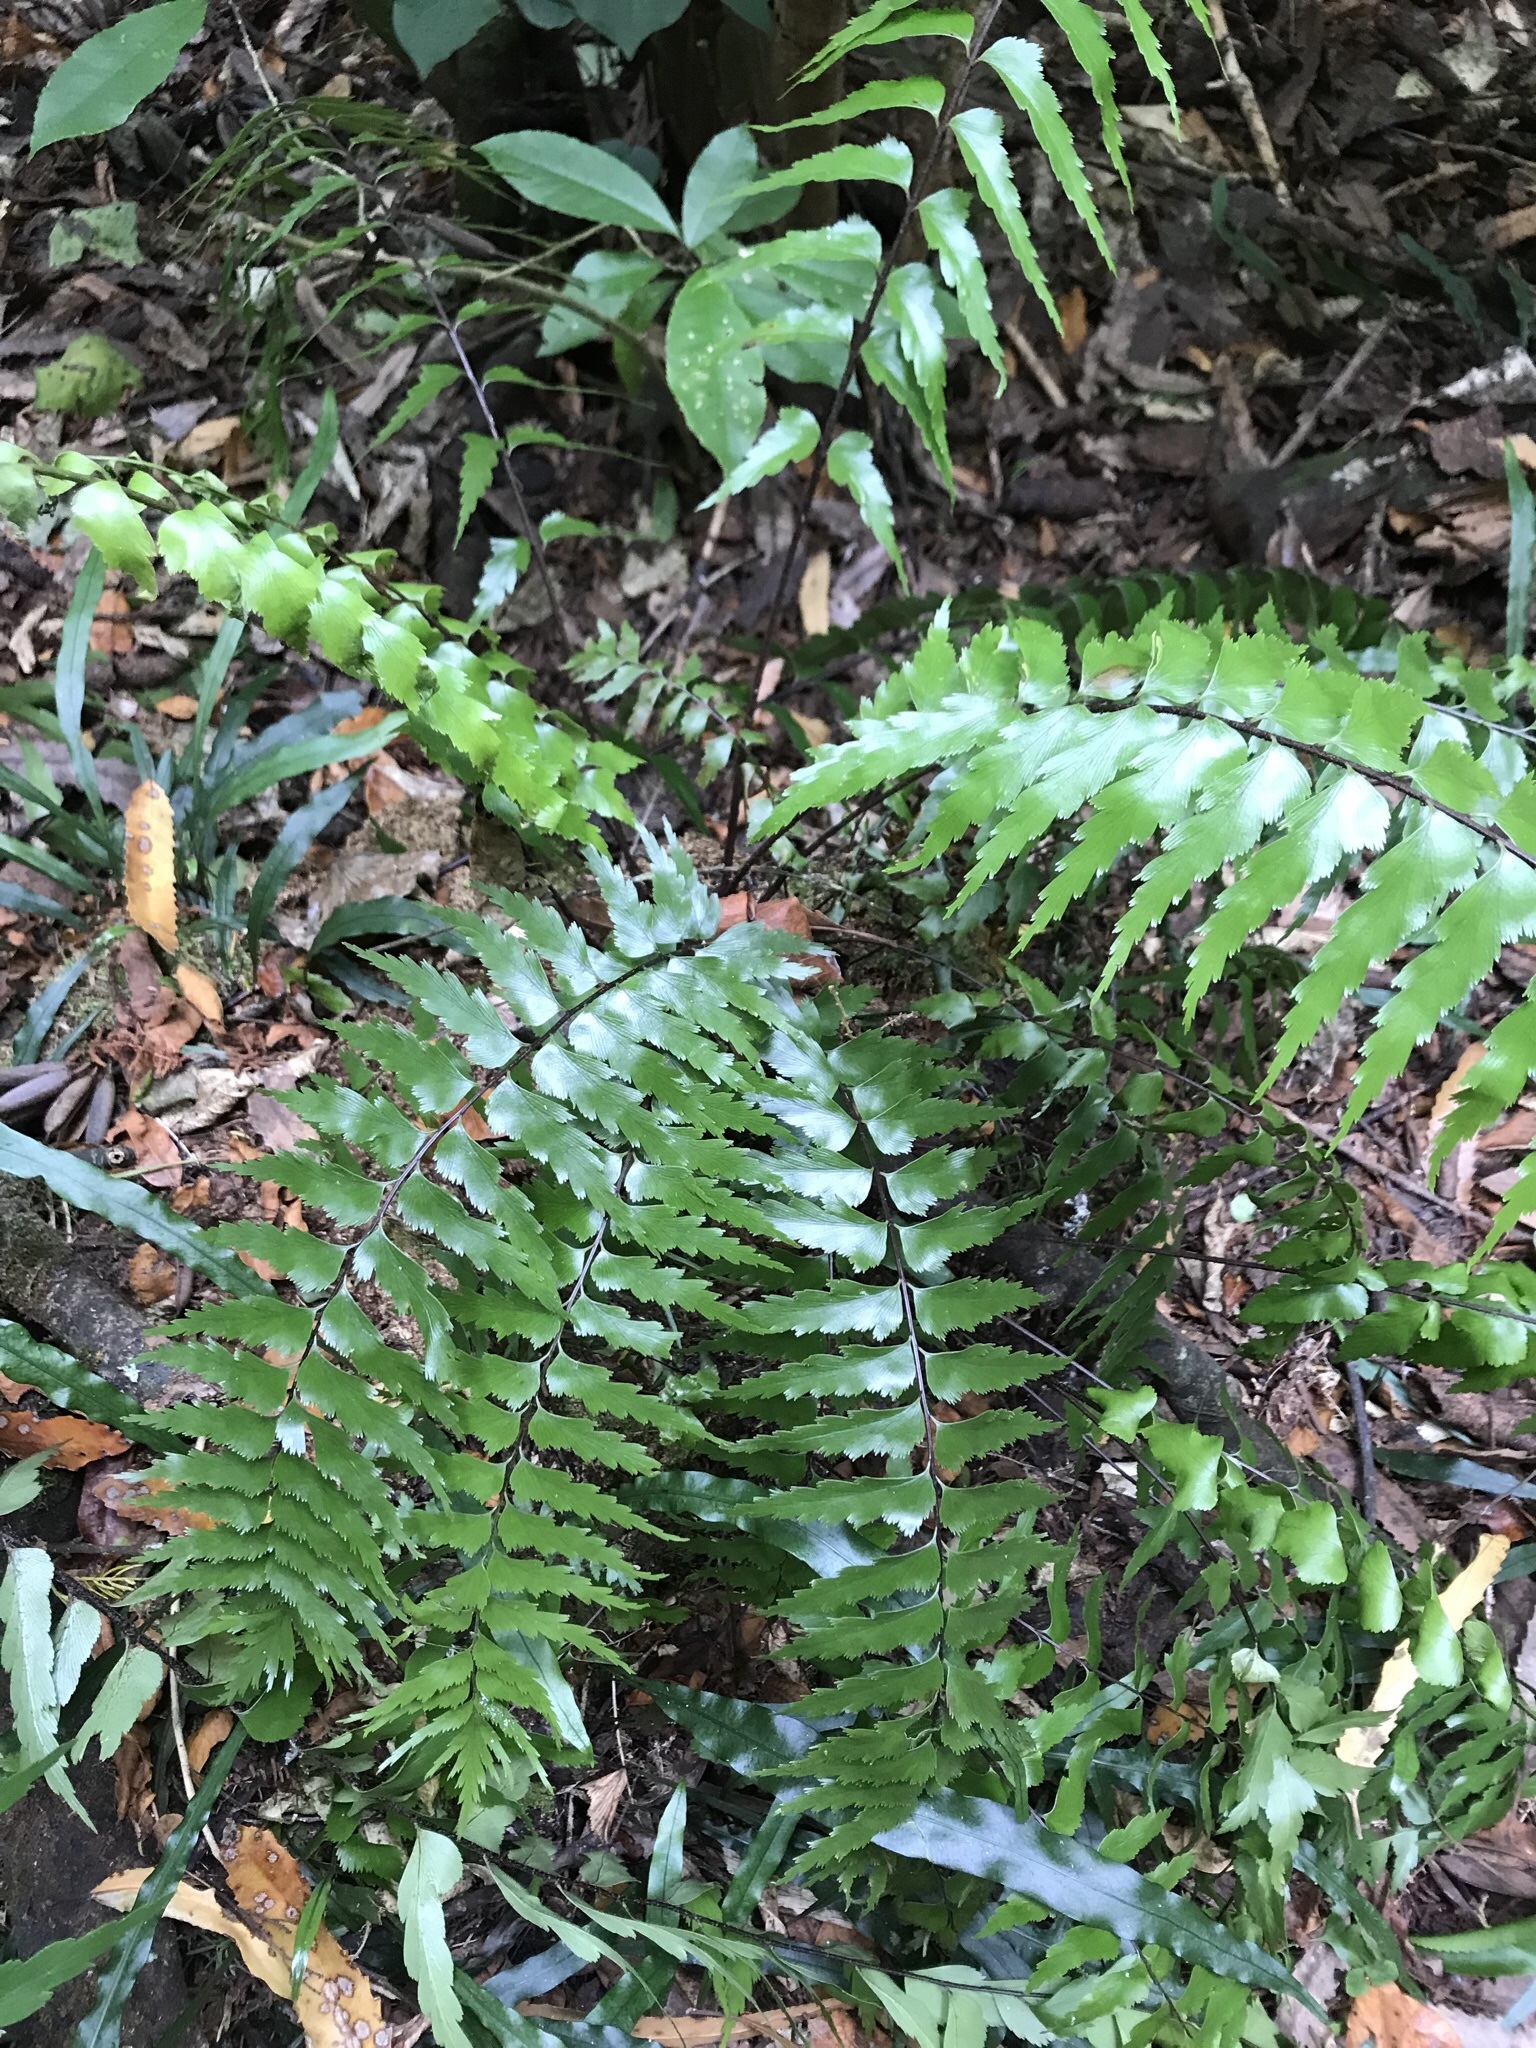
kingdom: Plantae
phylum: Tracheophyta
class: Polypodiopsida
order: Polypodiales
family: Aspleniaceae
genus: Asplenium
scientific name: Asplenium polyodon
